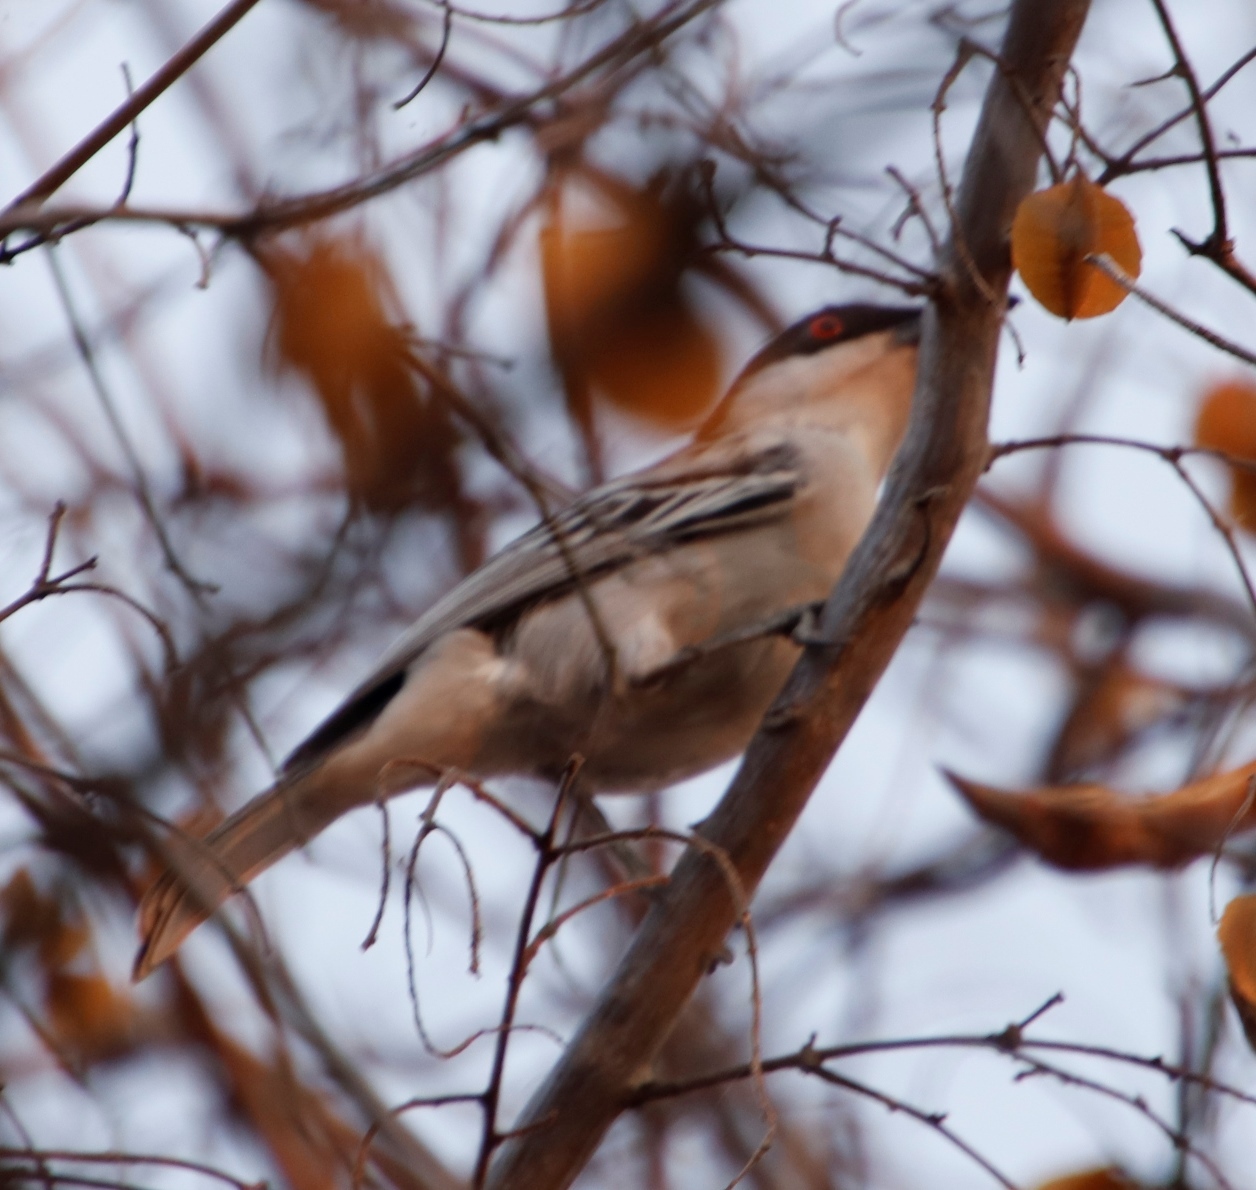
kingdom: Animalia
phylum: Chordata
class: Aves
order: Passeriformes
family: Malaconotidae
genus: Dryoscopus
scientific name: Dryoscopus cubla
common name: Black-backed puffback
